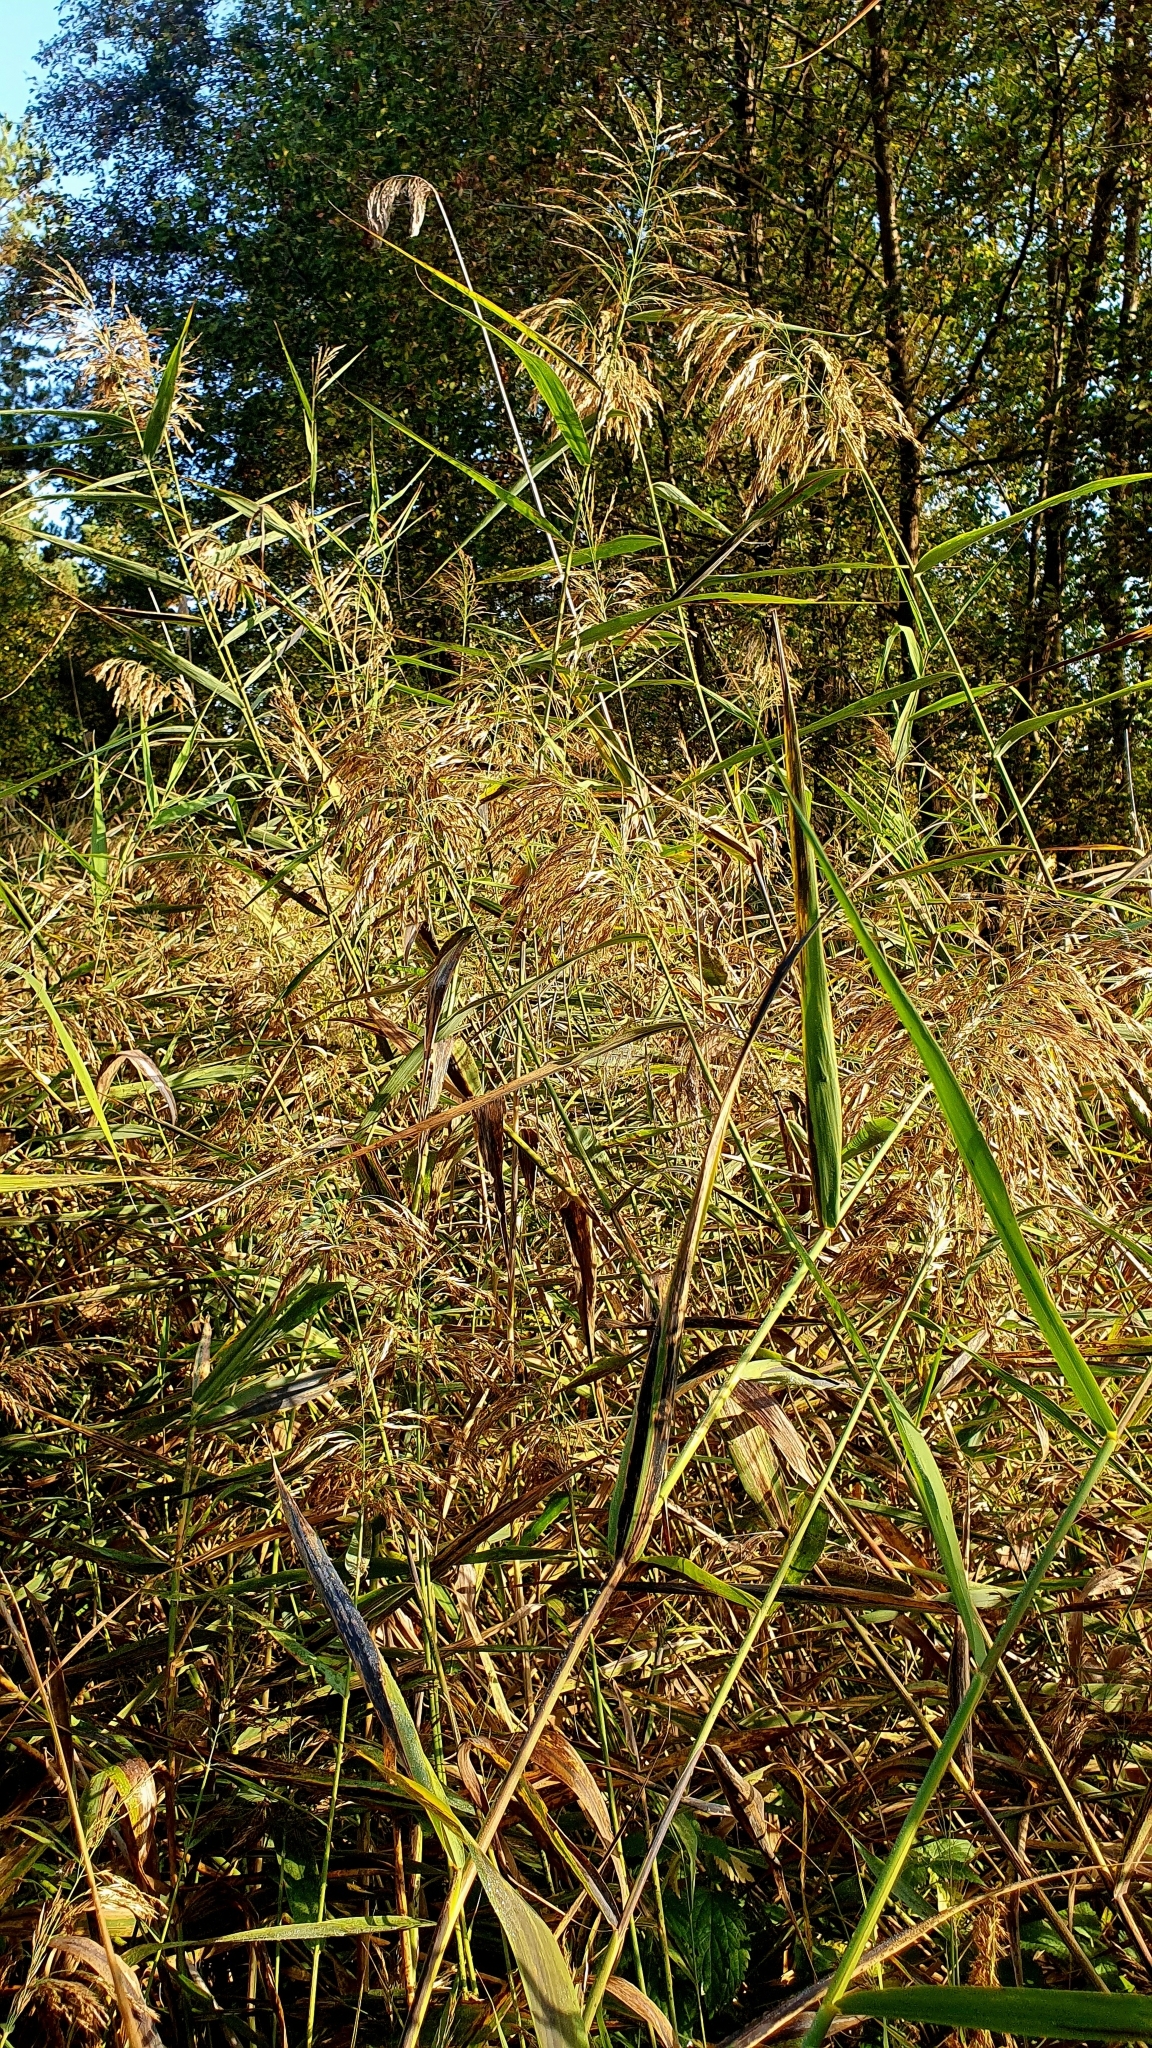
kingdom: Plantae
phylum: Tracheophyta
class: Liliopsida
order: Poales
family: Poaceae
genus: Phragmites
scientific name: Phragmites australis
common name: Common reed
